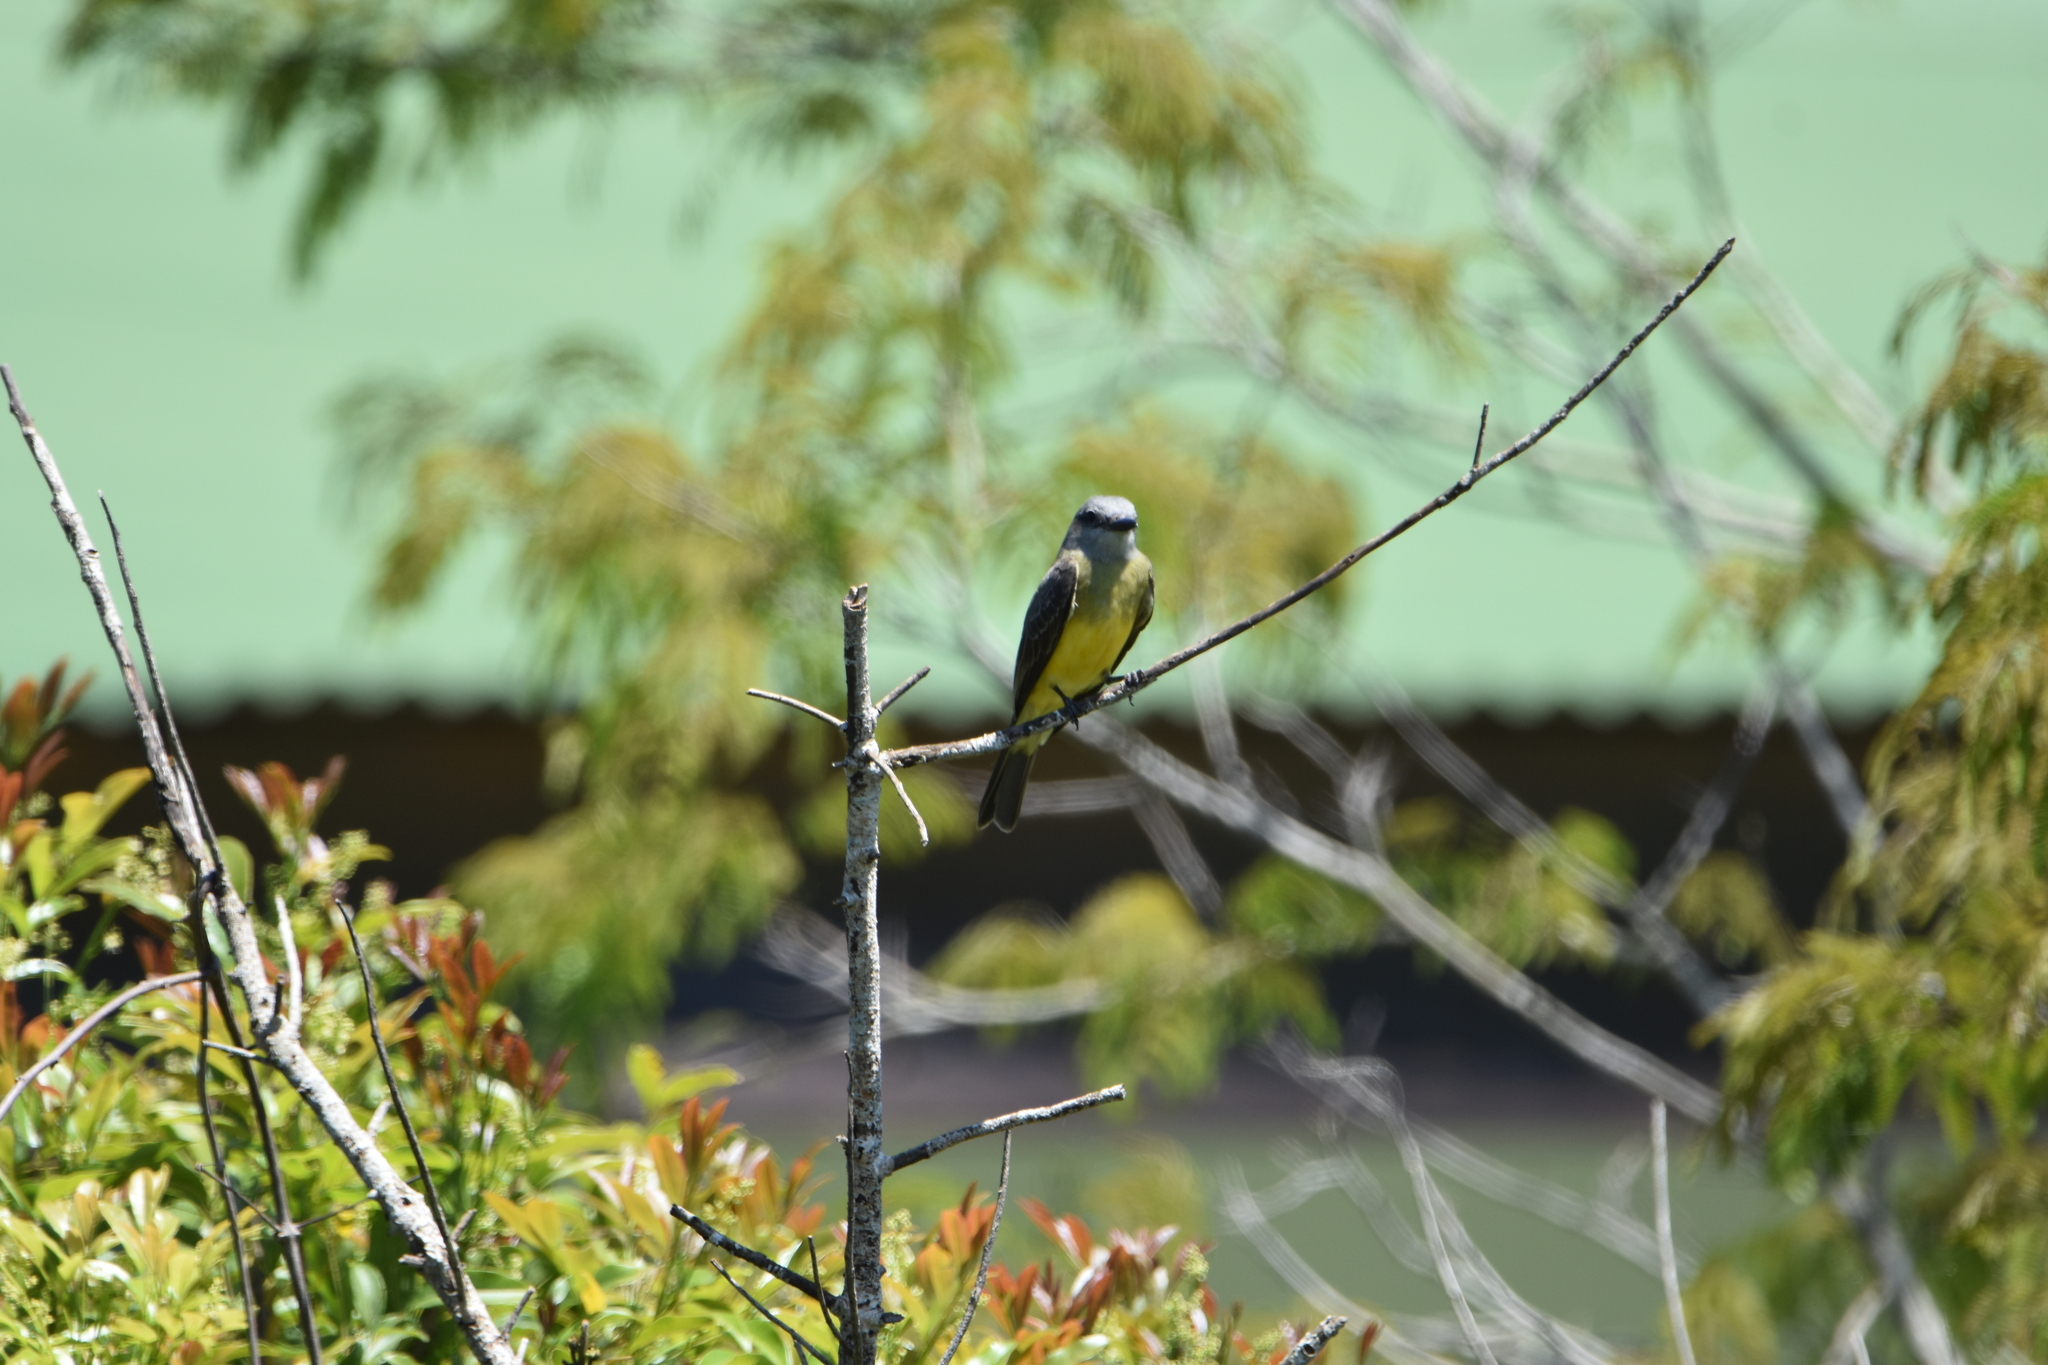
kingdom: Animalia
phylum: Chordata
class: Aves
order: Passeriformes
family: Tyrannidae
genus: Tyrannus
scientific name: Tyrannus melancholicus
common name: Tropical kingbird
